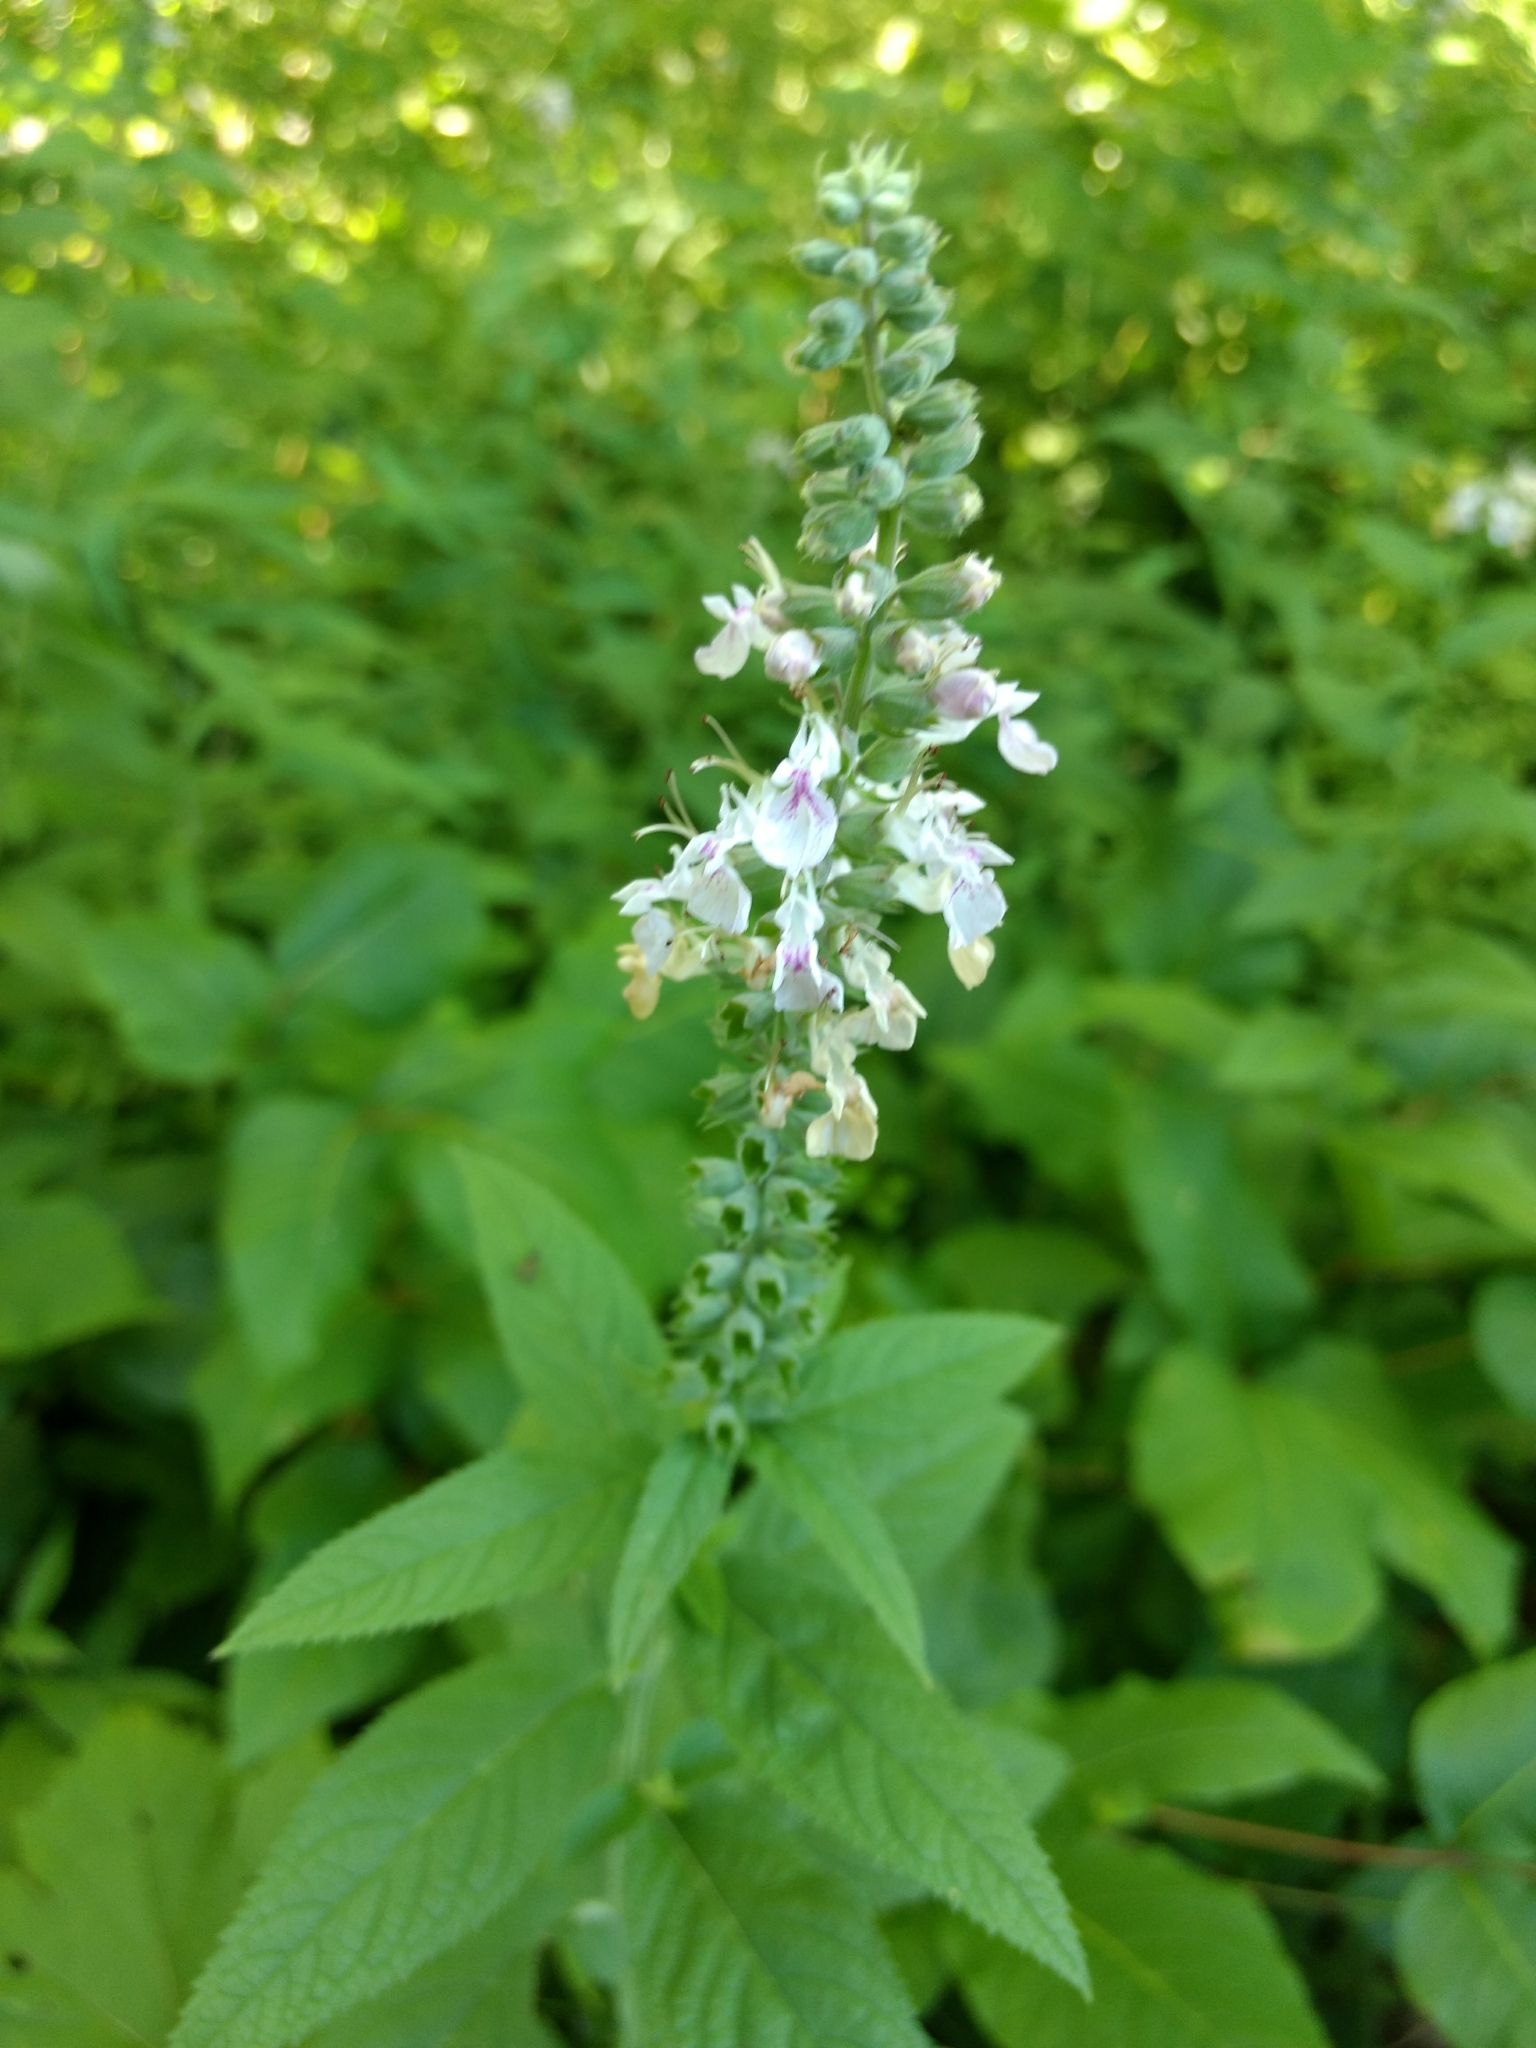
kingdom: Plantae
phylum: Tracheophyta
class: Magnoliopsida
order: Lamiales
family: Lamiaceae
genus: Teucrium
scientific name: Teucrium canadense
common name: American germander
